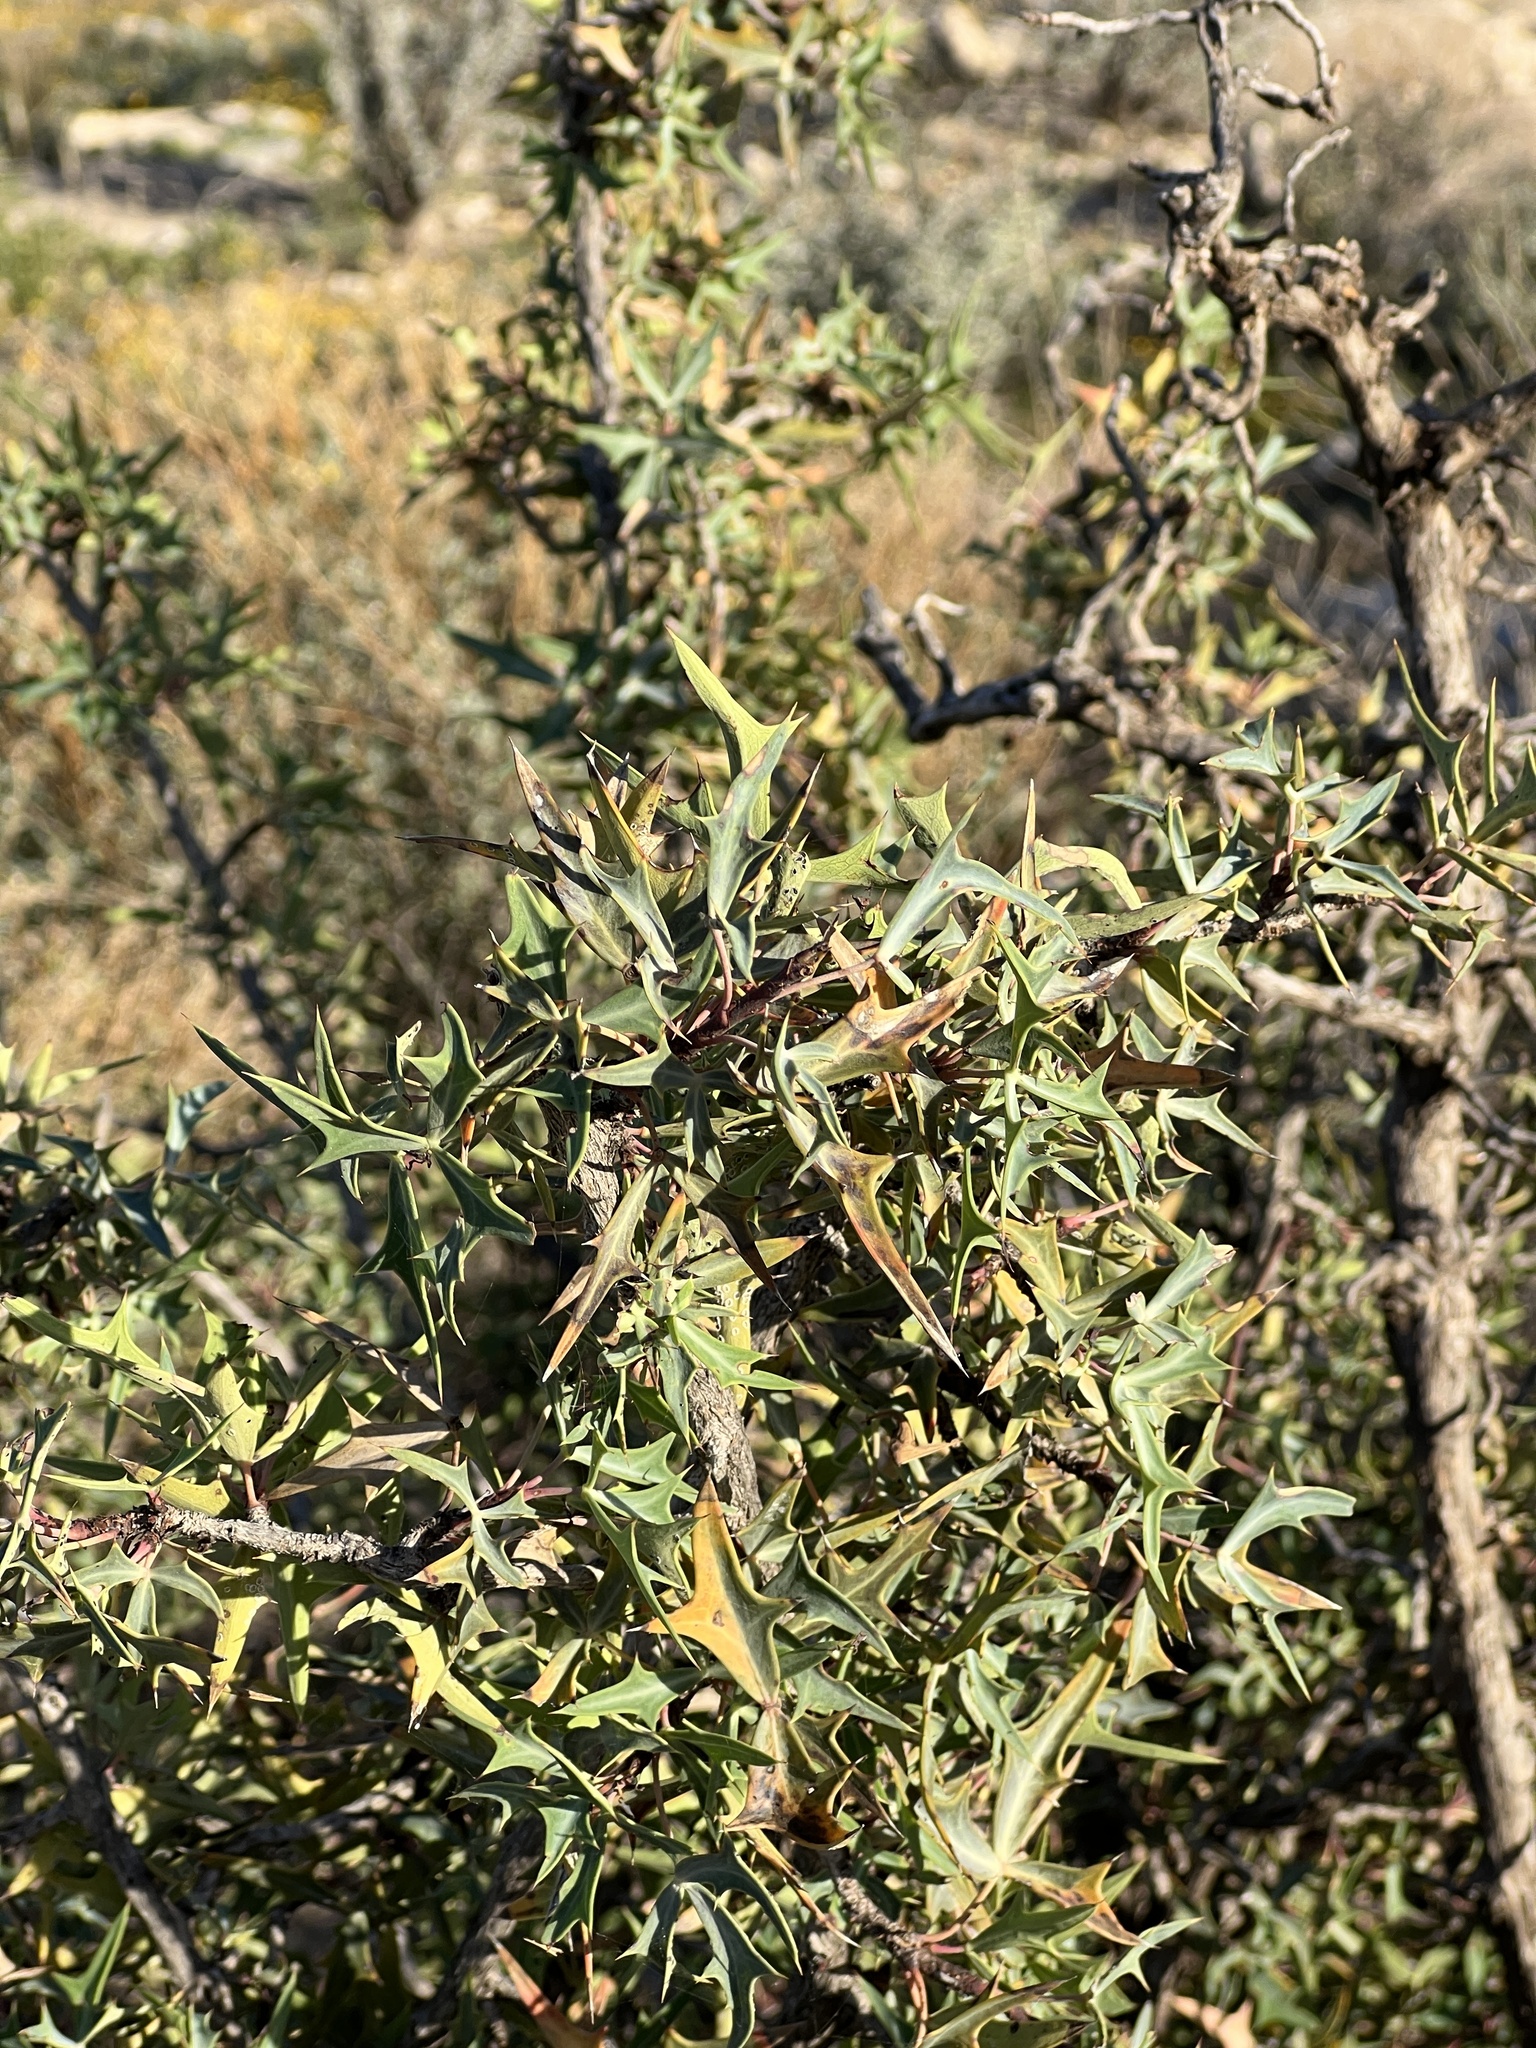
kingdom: Plantae
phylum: Tracheophyta
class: Magnoliopsida
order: Ranunculales
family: Berberidaceae
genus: Alloberberis
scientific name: Alloberberis trifoliolata
